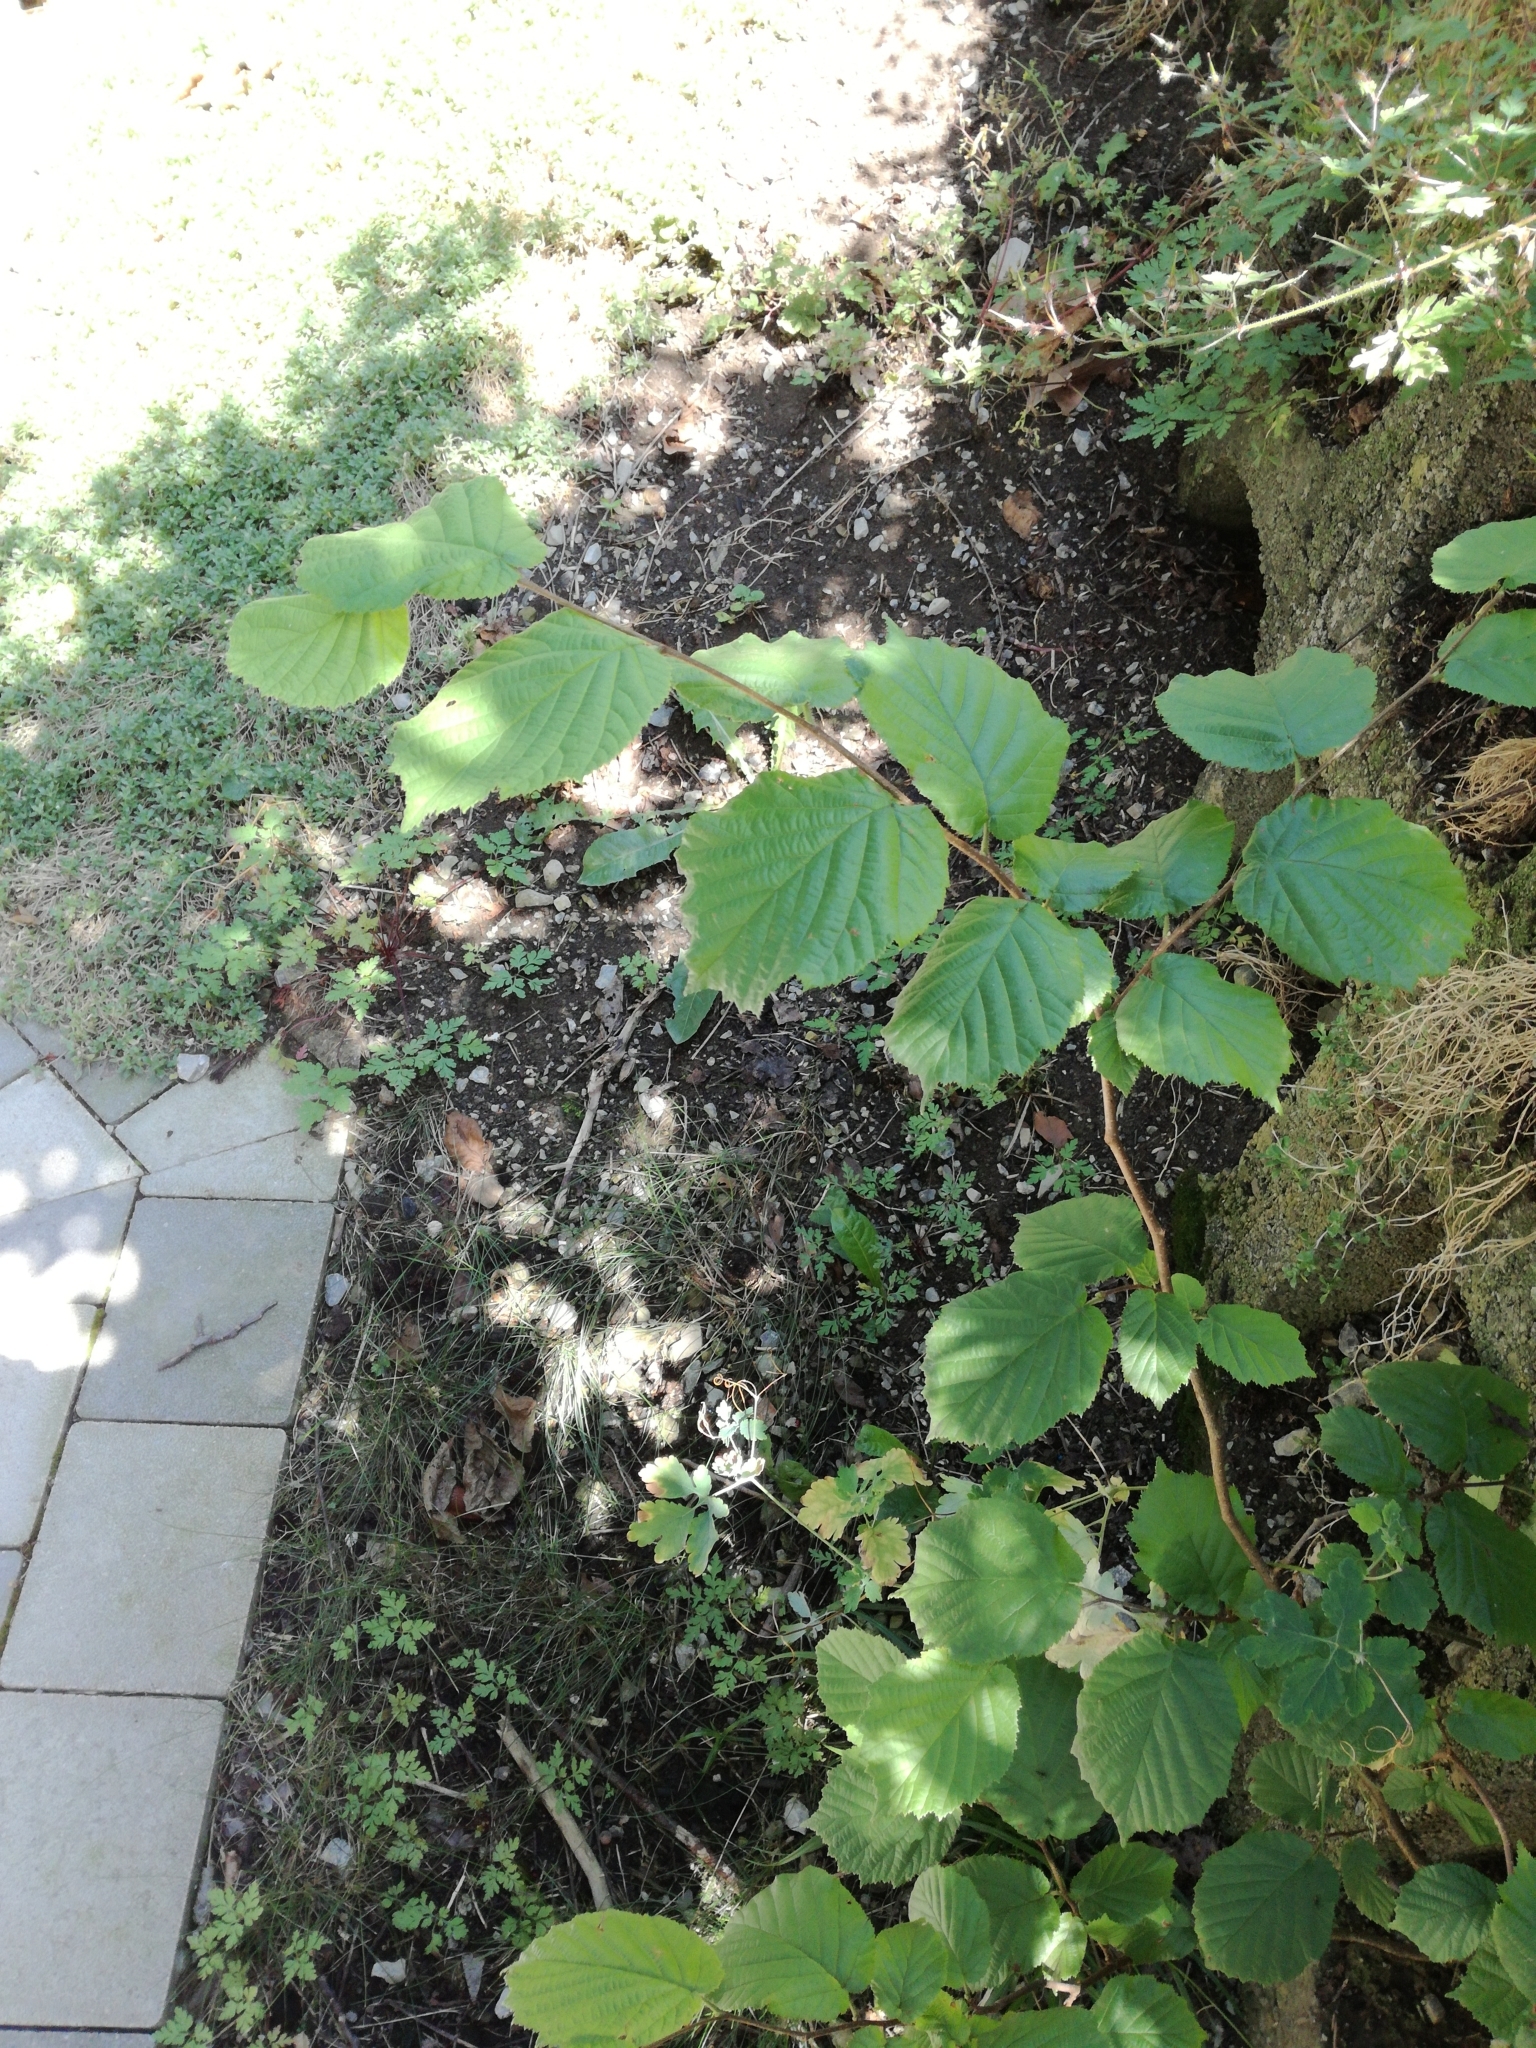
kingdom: Plantae
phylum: Tracheophyta
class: Magnoliopsida
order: Fagales
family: Betulaceae
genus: Corylus
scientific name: Corylus avellana
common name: European hazel
